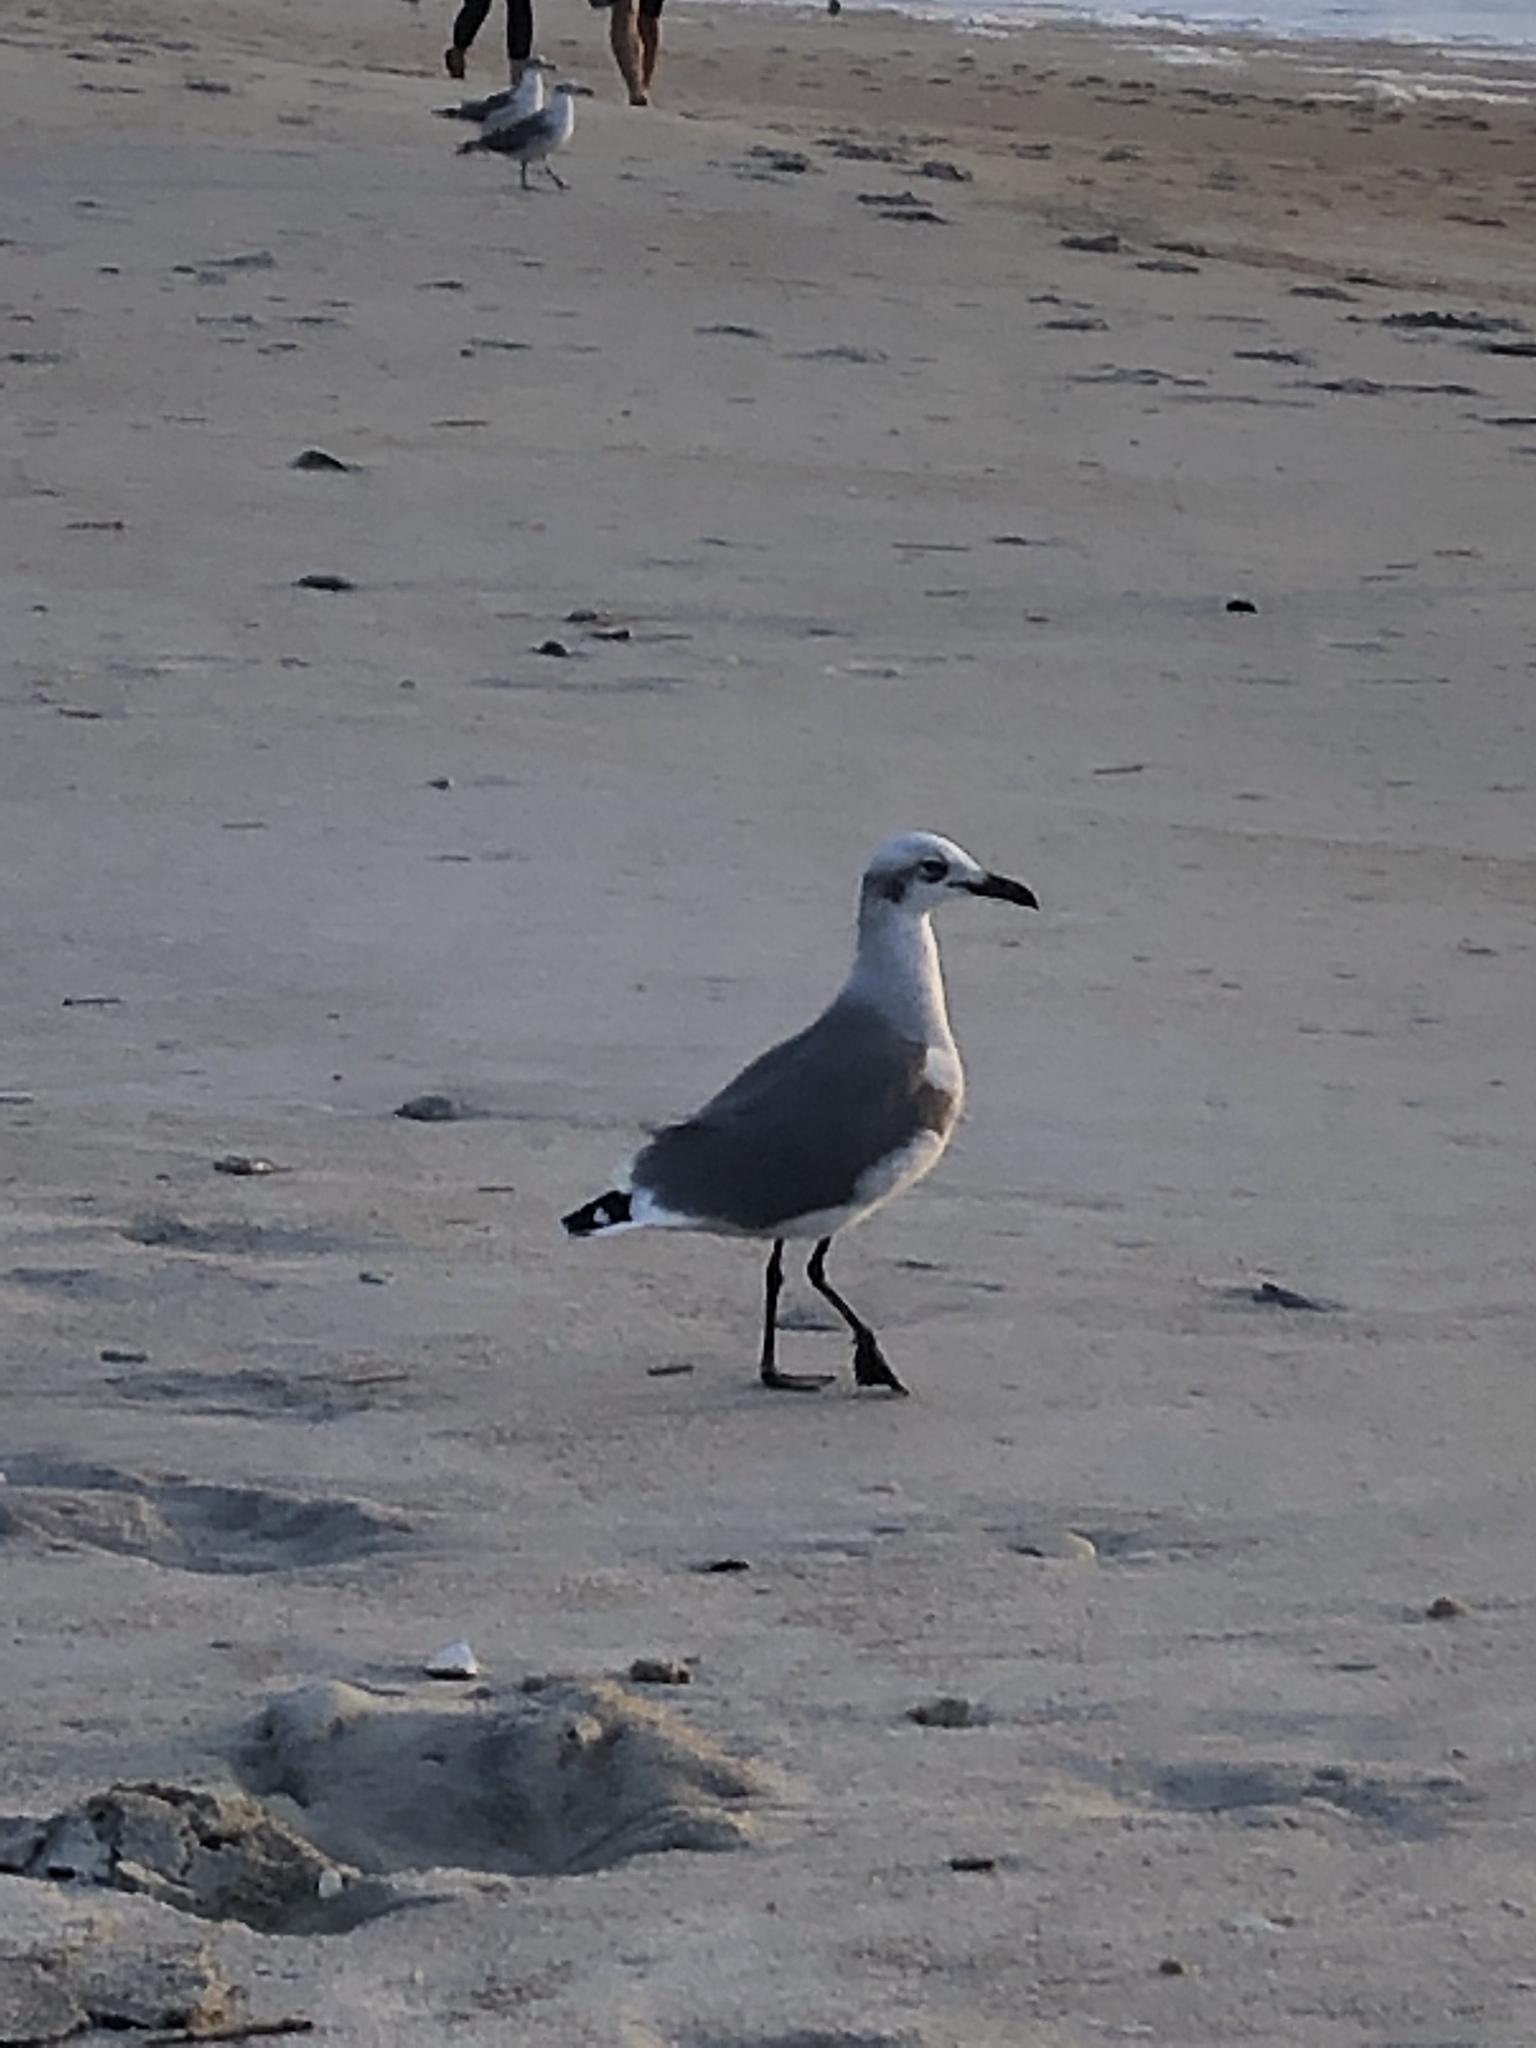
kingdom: Animalia
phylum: Chordata
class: Aves
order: Charadriiformes
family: Laridae
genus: Leucophaeus
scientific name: Leucophaeus atricilla
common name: Laughing gull
